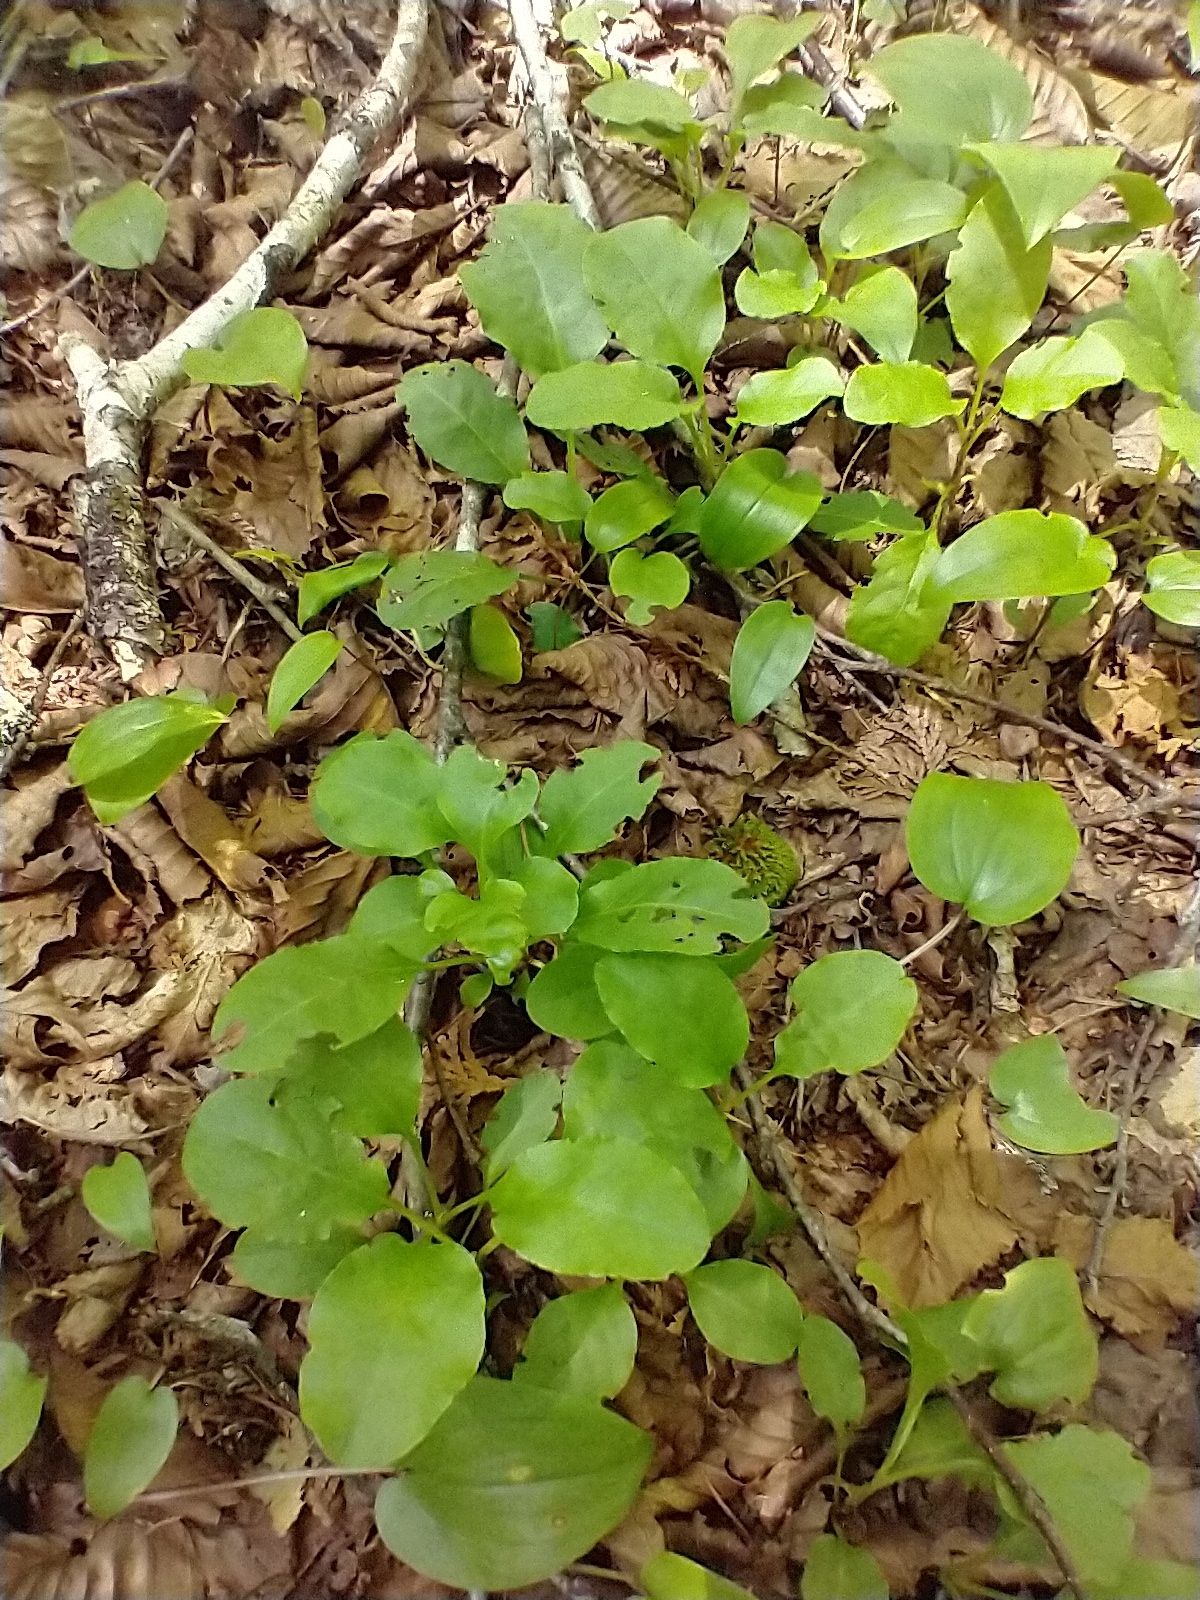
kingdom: Plantae
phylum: Tracheophyta
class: Magnoliopsida
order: Ericales
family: Ericaceae
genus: Pyrola
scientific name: Pyrola elliptica
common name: Shinleaf
